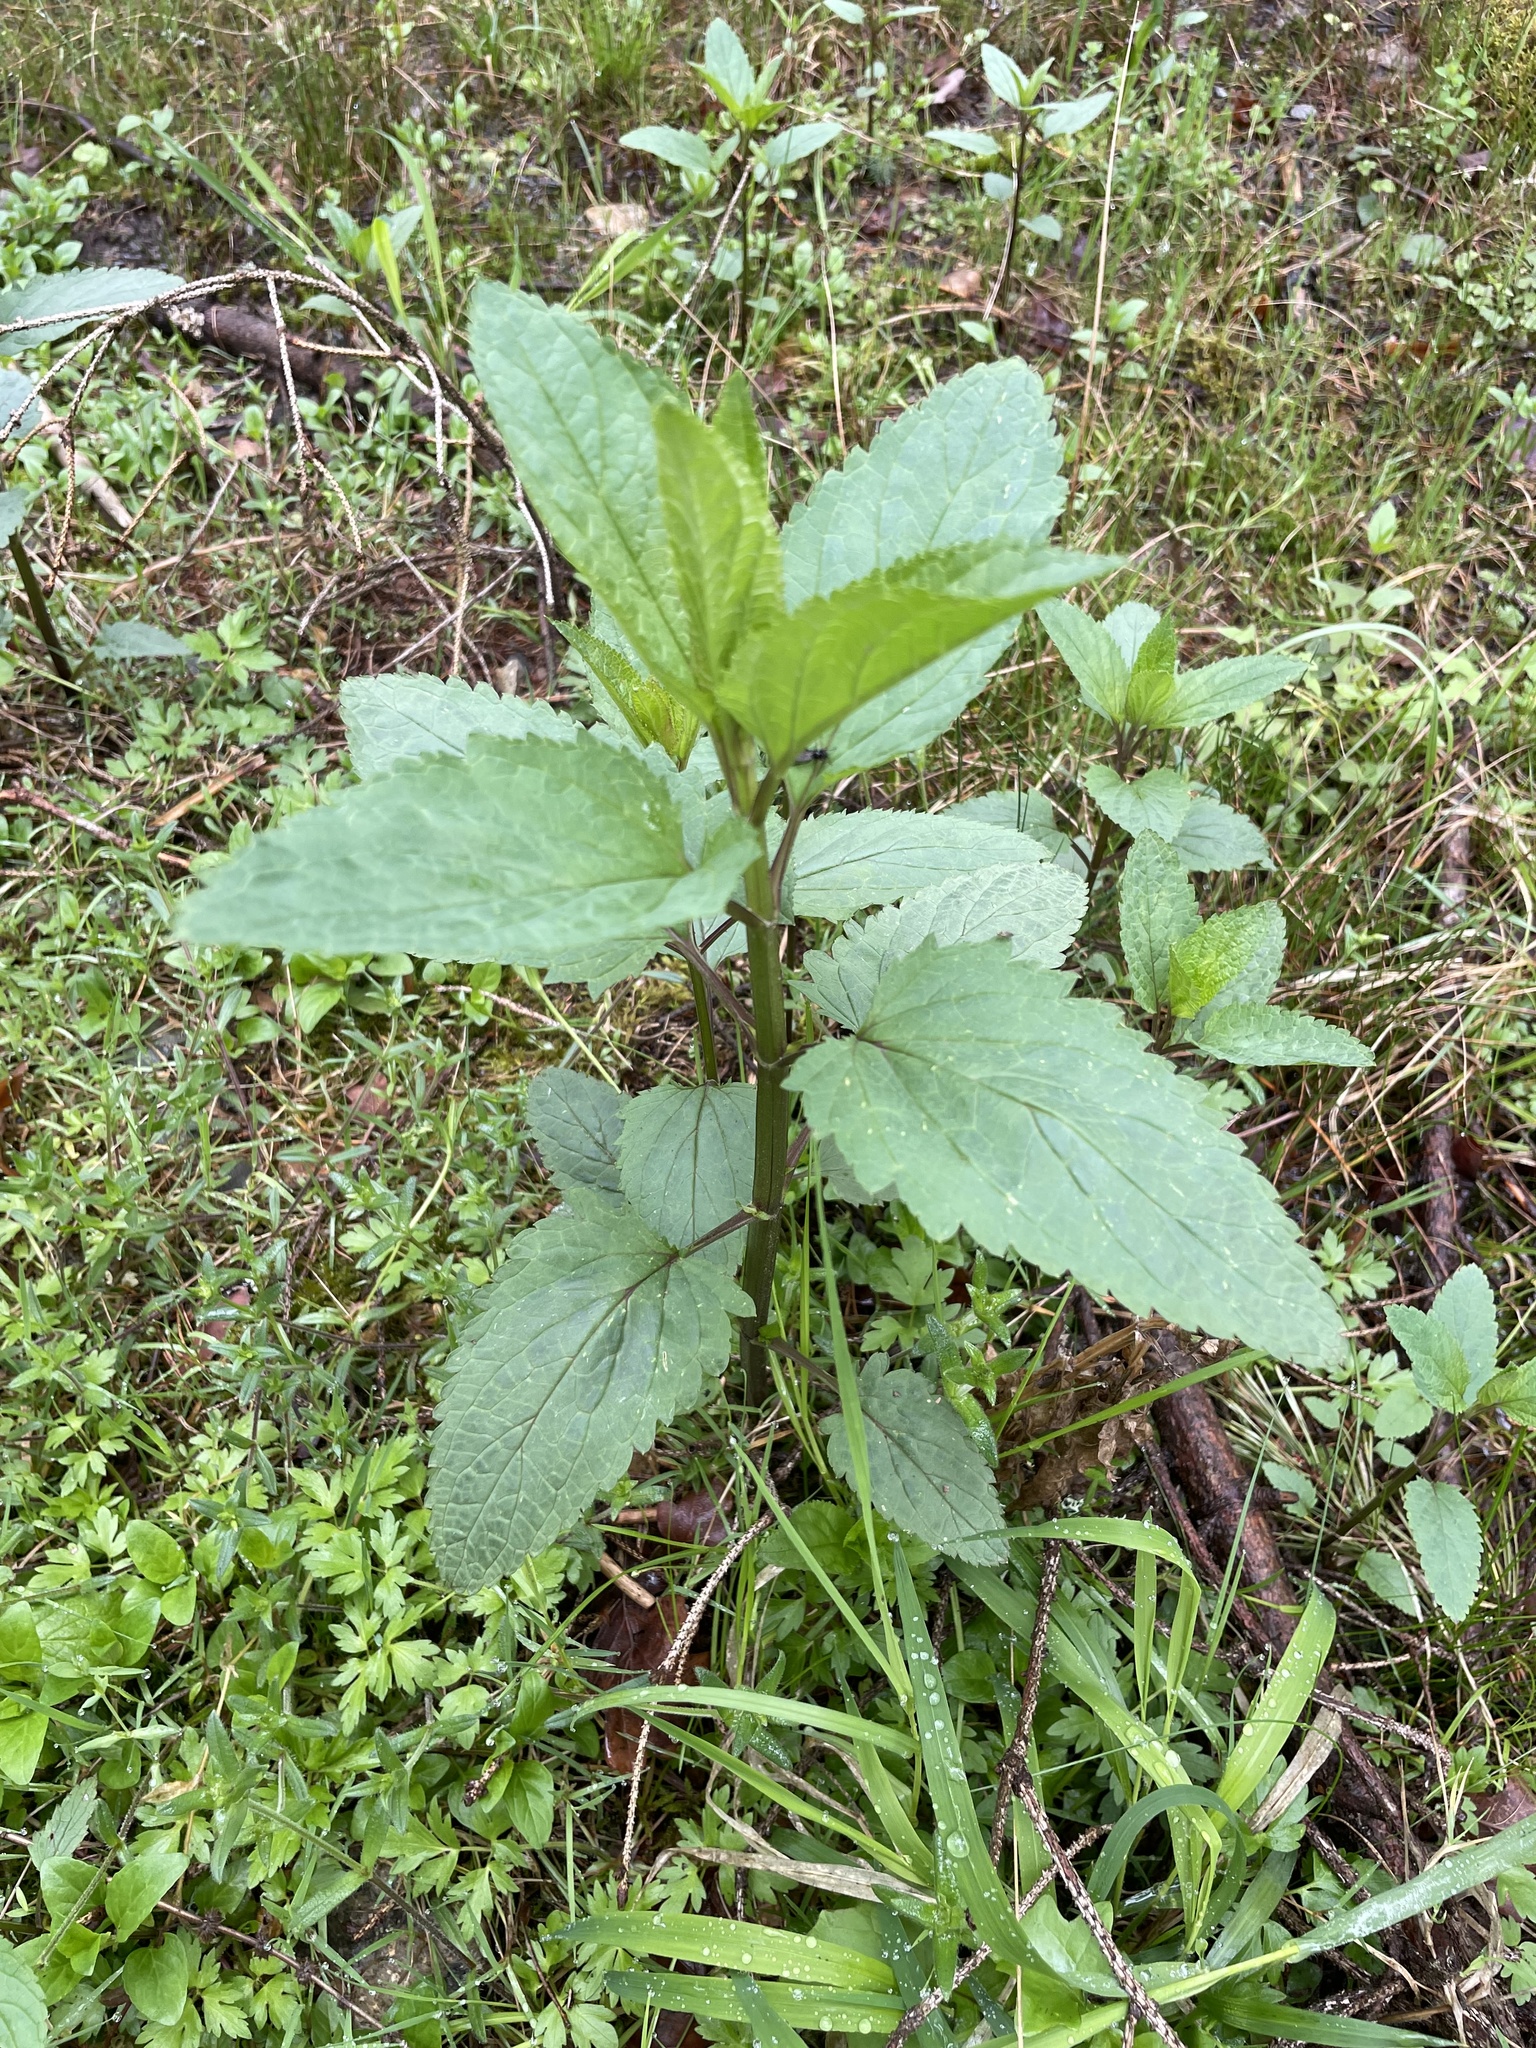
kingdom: Plantae
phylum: Tracheophyta
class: Magnoliopsida
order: Lamiales
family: Scrophulariaceae
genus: Scrophularia
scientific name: Scrophularia nodosa
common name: Common figwort
